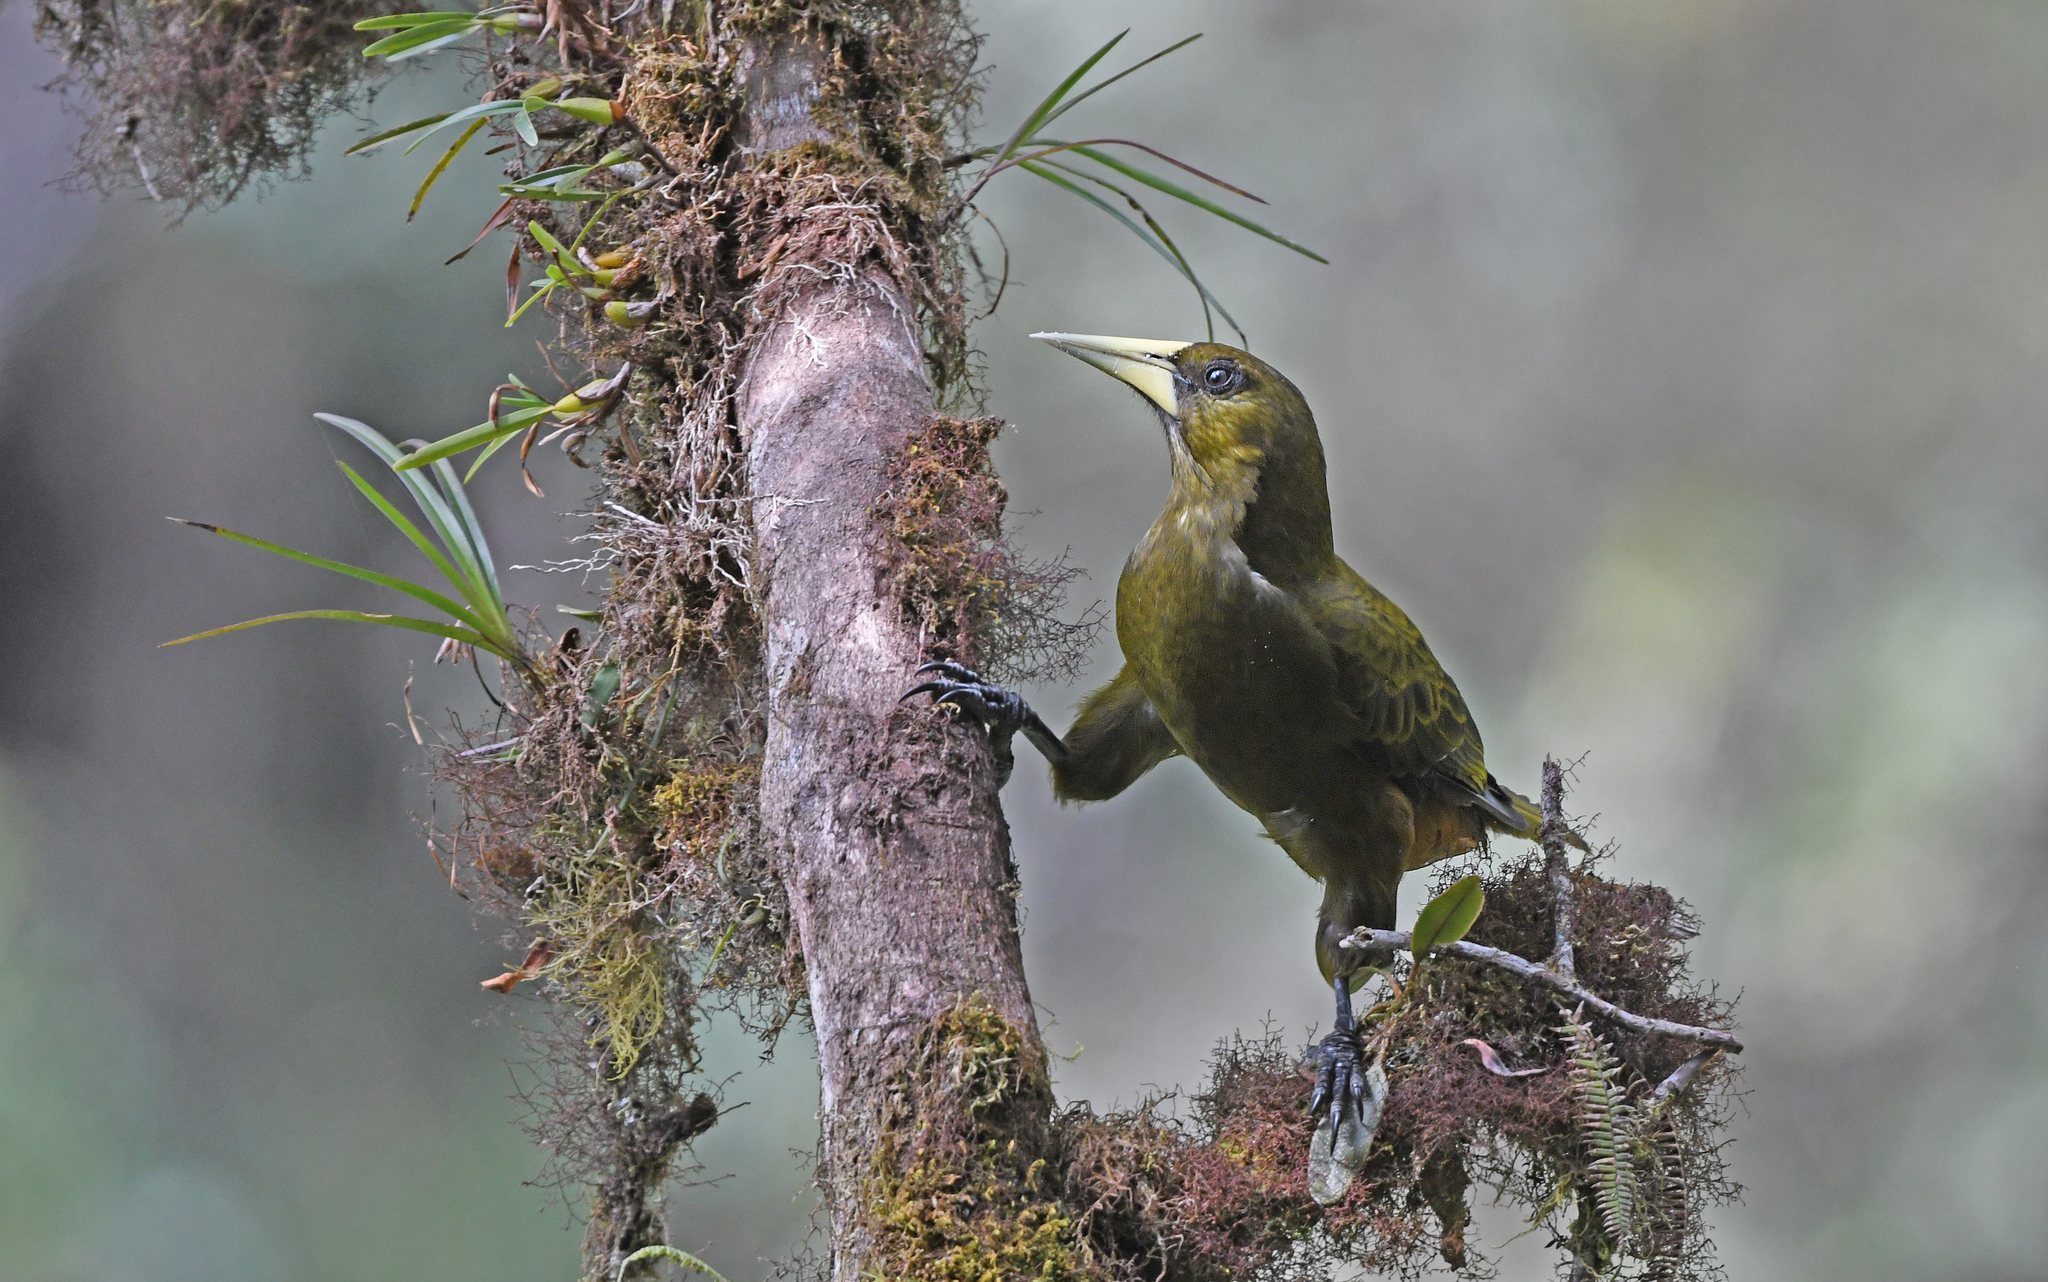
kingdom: Animalia
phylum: Chordata
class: Aves
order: Passeriformes
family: Icteridae
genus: Psarocolius
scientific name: Psarocolius atrovirens
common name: Dusky-green oropendola
